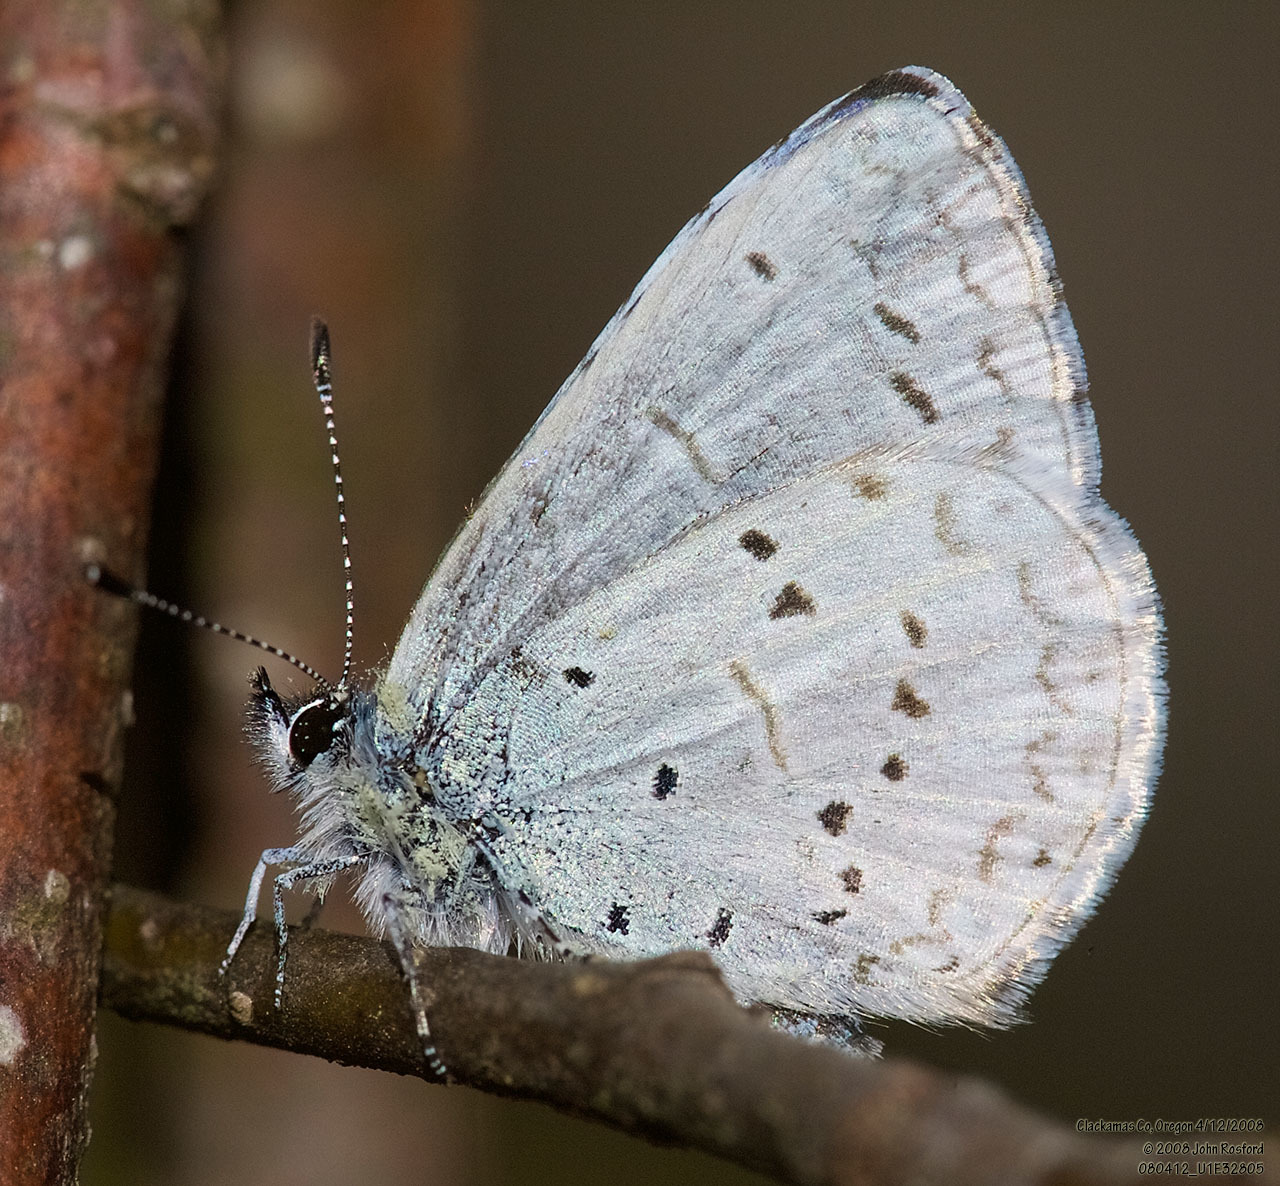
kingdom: Animalia
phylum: Arthropoda
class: Insecta
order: Lepidoptera
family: Lycaenidae
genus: Celastrina
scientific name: Celastrina ladon
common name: Spring azure
